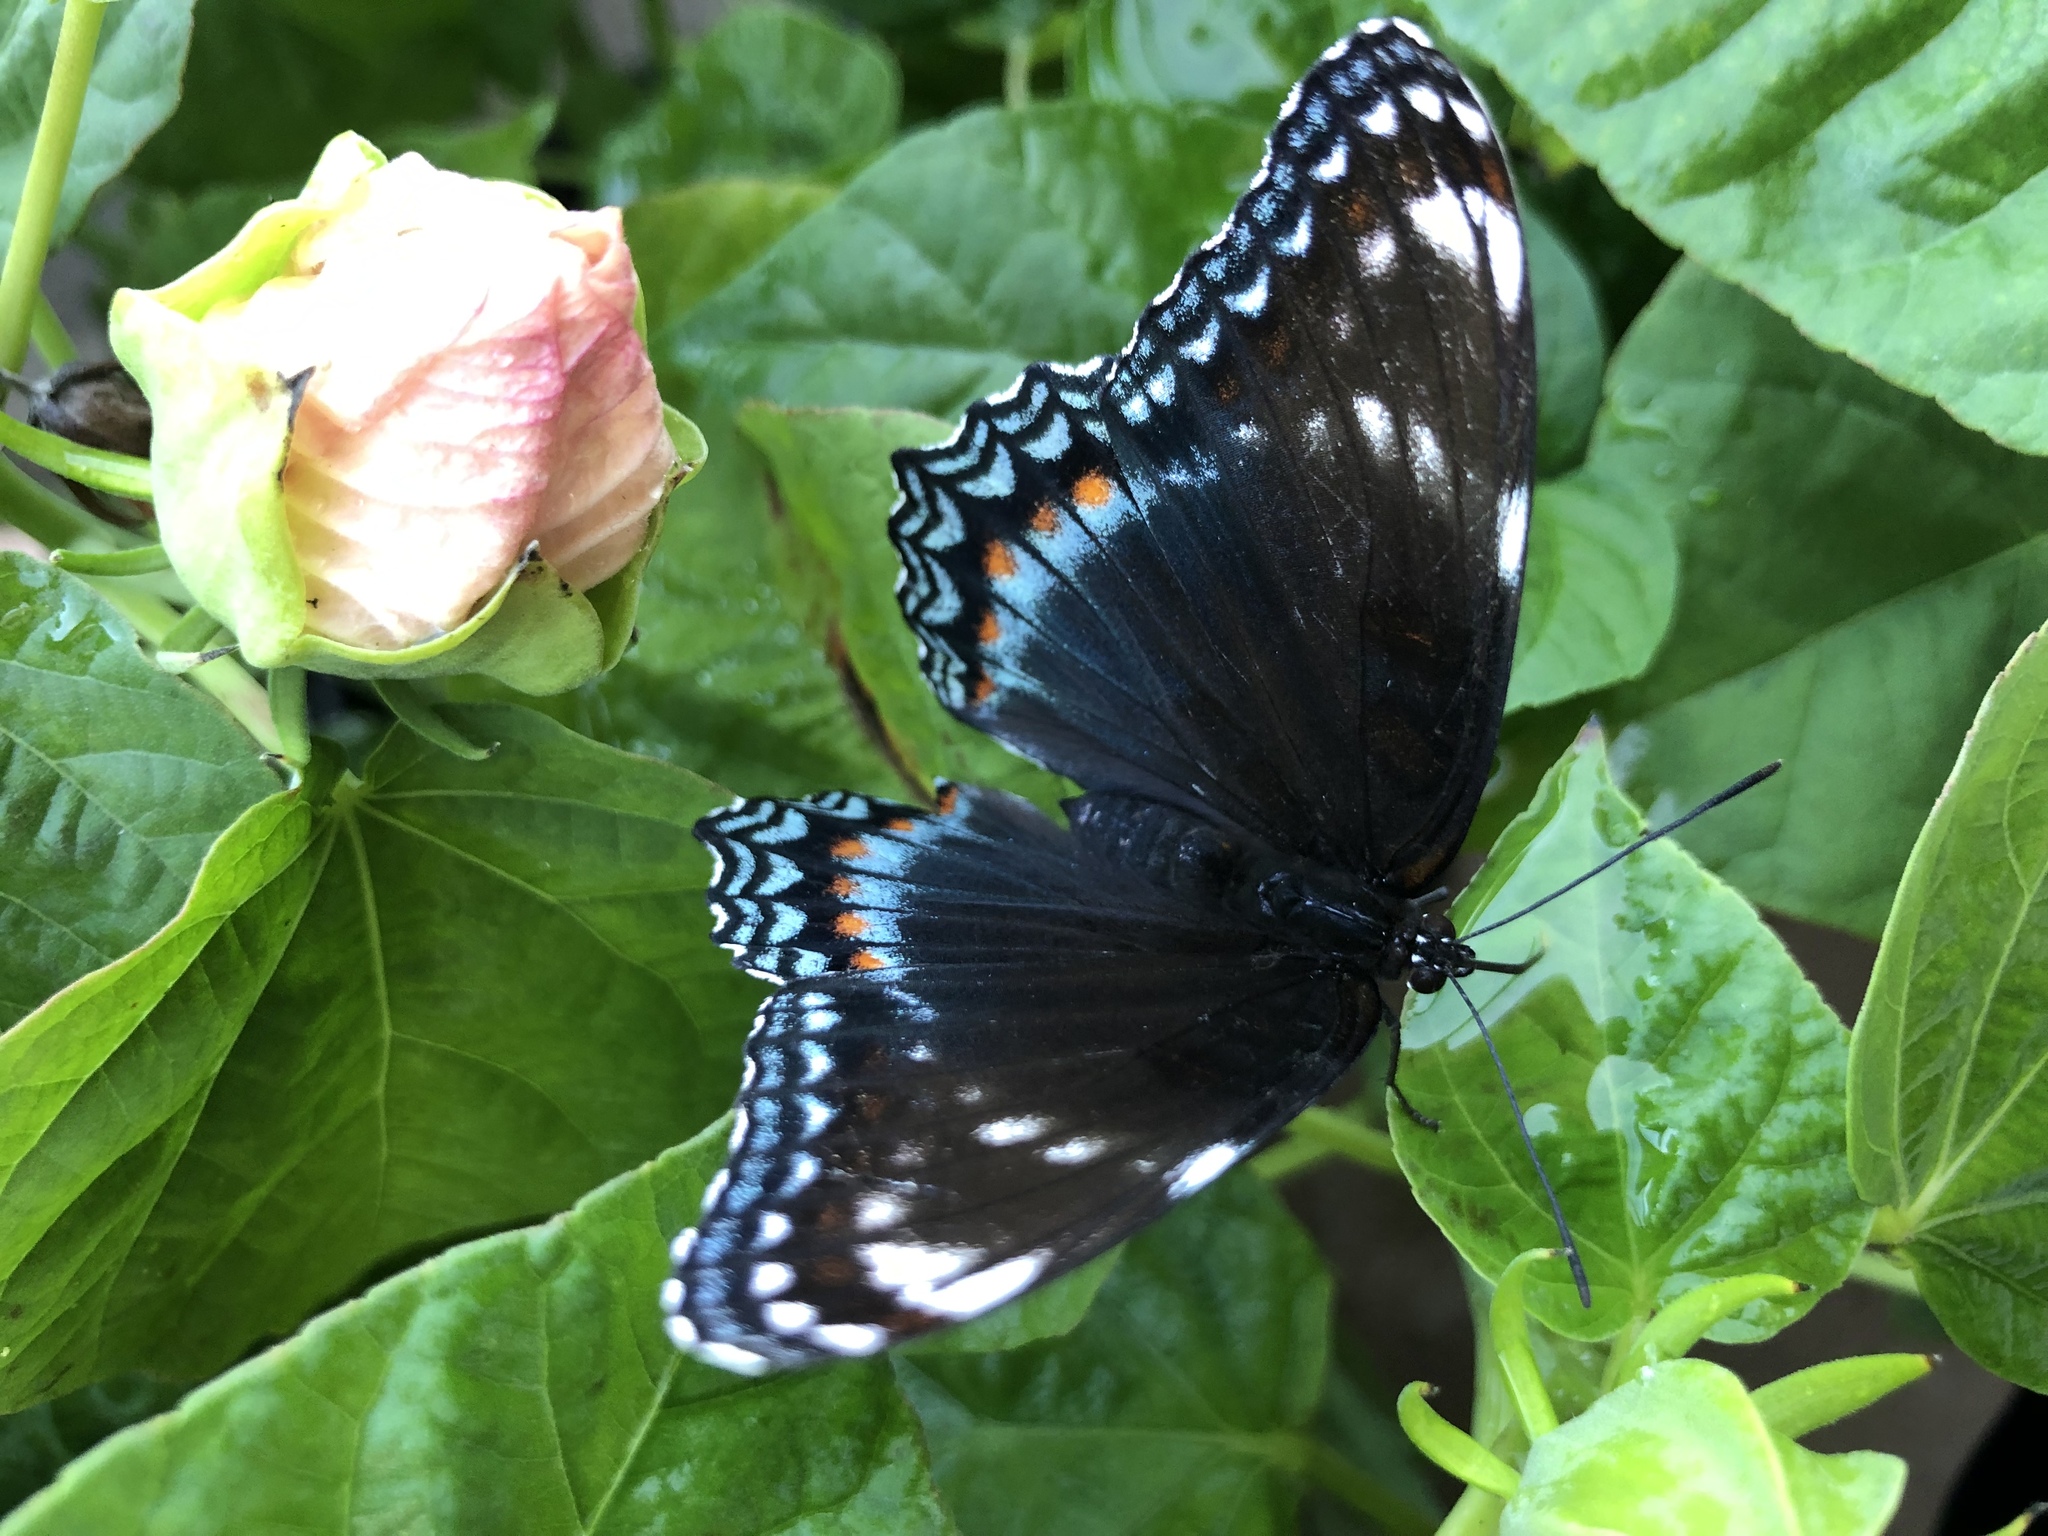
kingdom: Animalia
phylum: Arthropoda
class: Insecta
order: Lepidoptera
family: Nymphalidae
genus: Limenitis
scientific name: Limenitis
